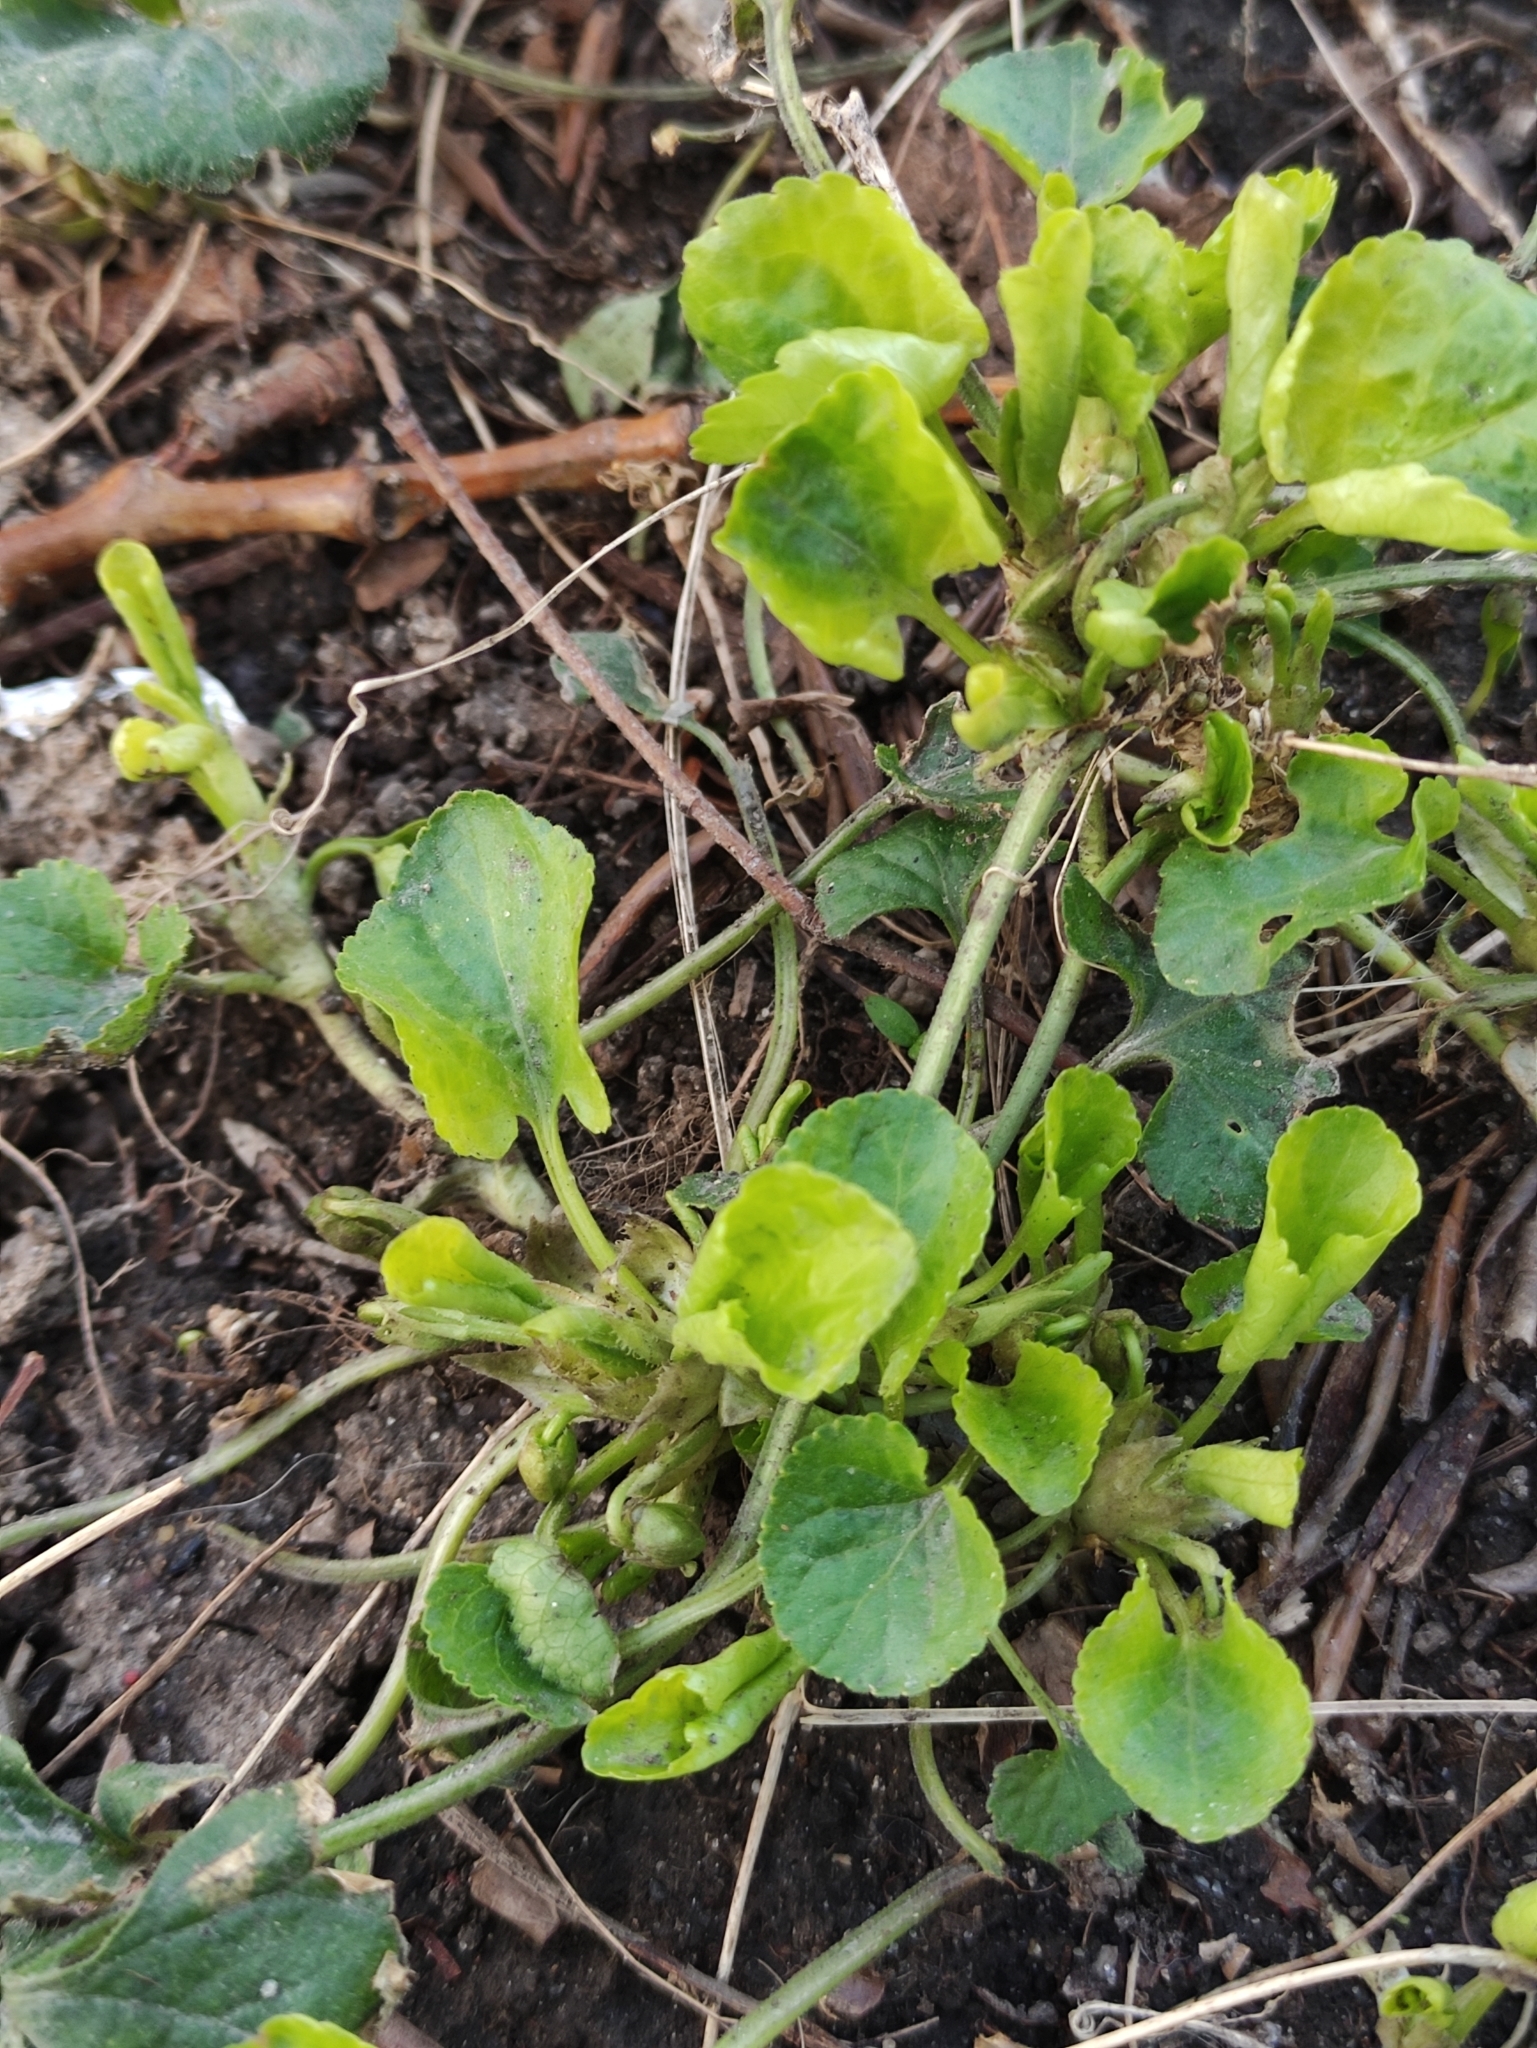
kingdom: Plantae
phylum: Tracheophyta
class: Magnoliopsida
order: Malpighiales
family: Violaceae
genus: Viola
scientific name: Viola odorata
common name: Sweet violet
